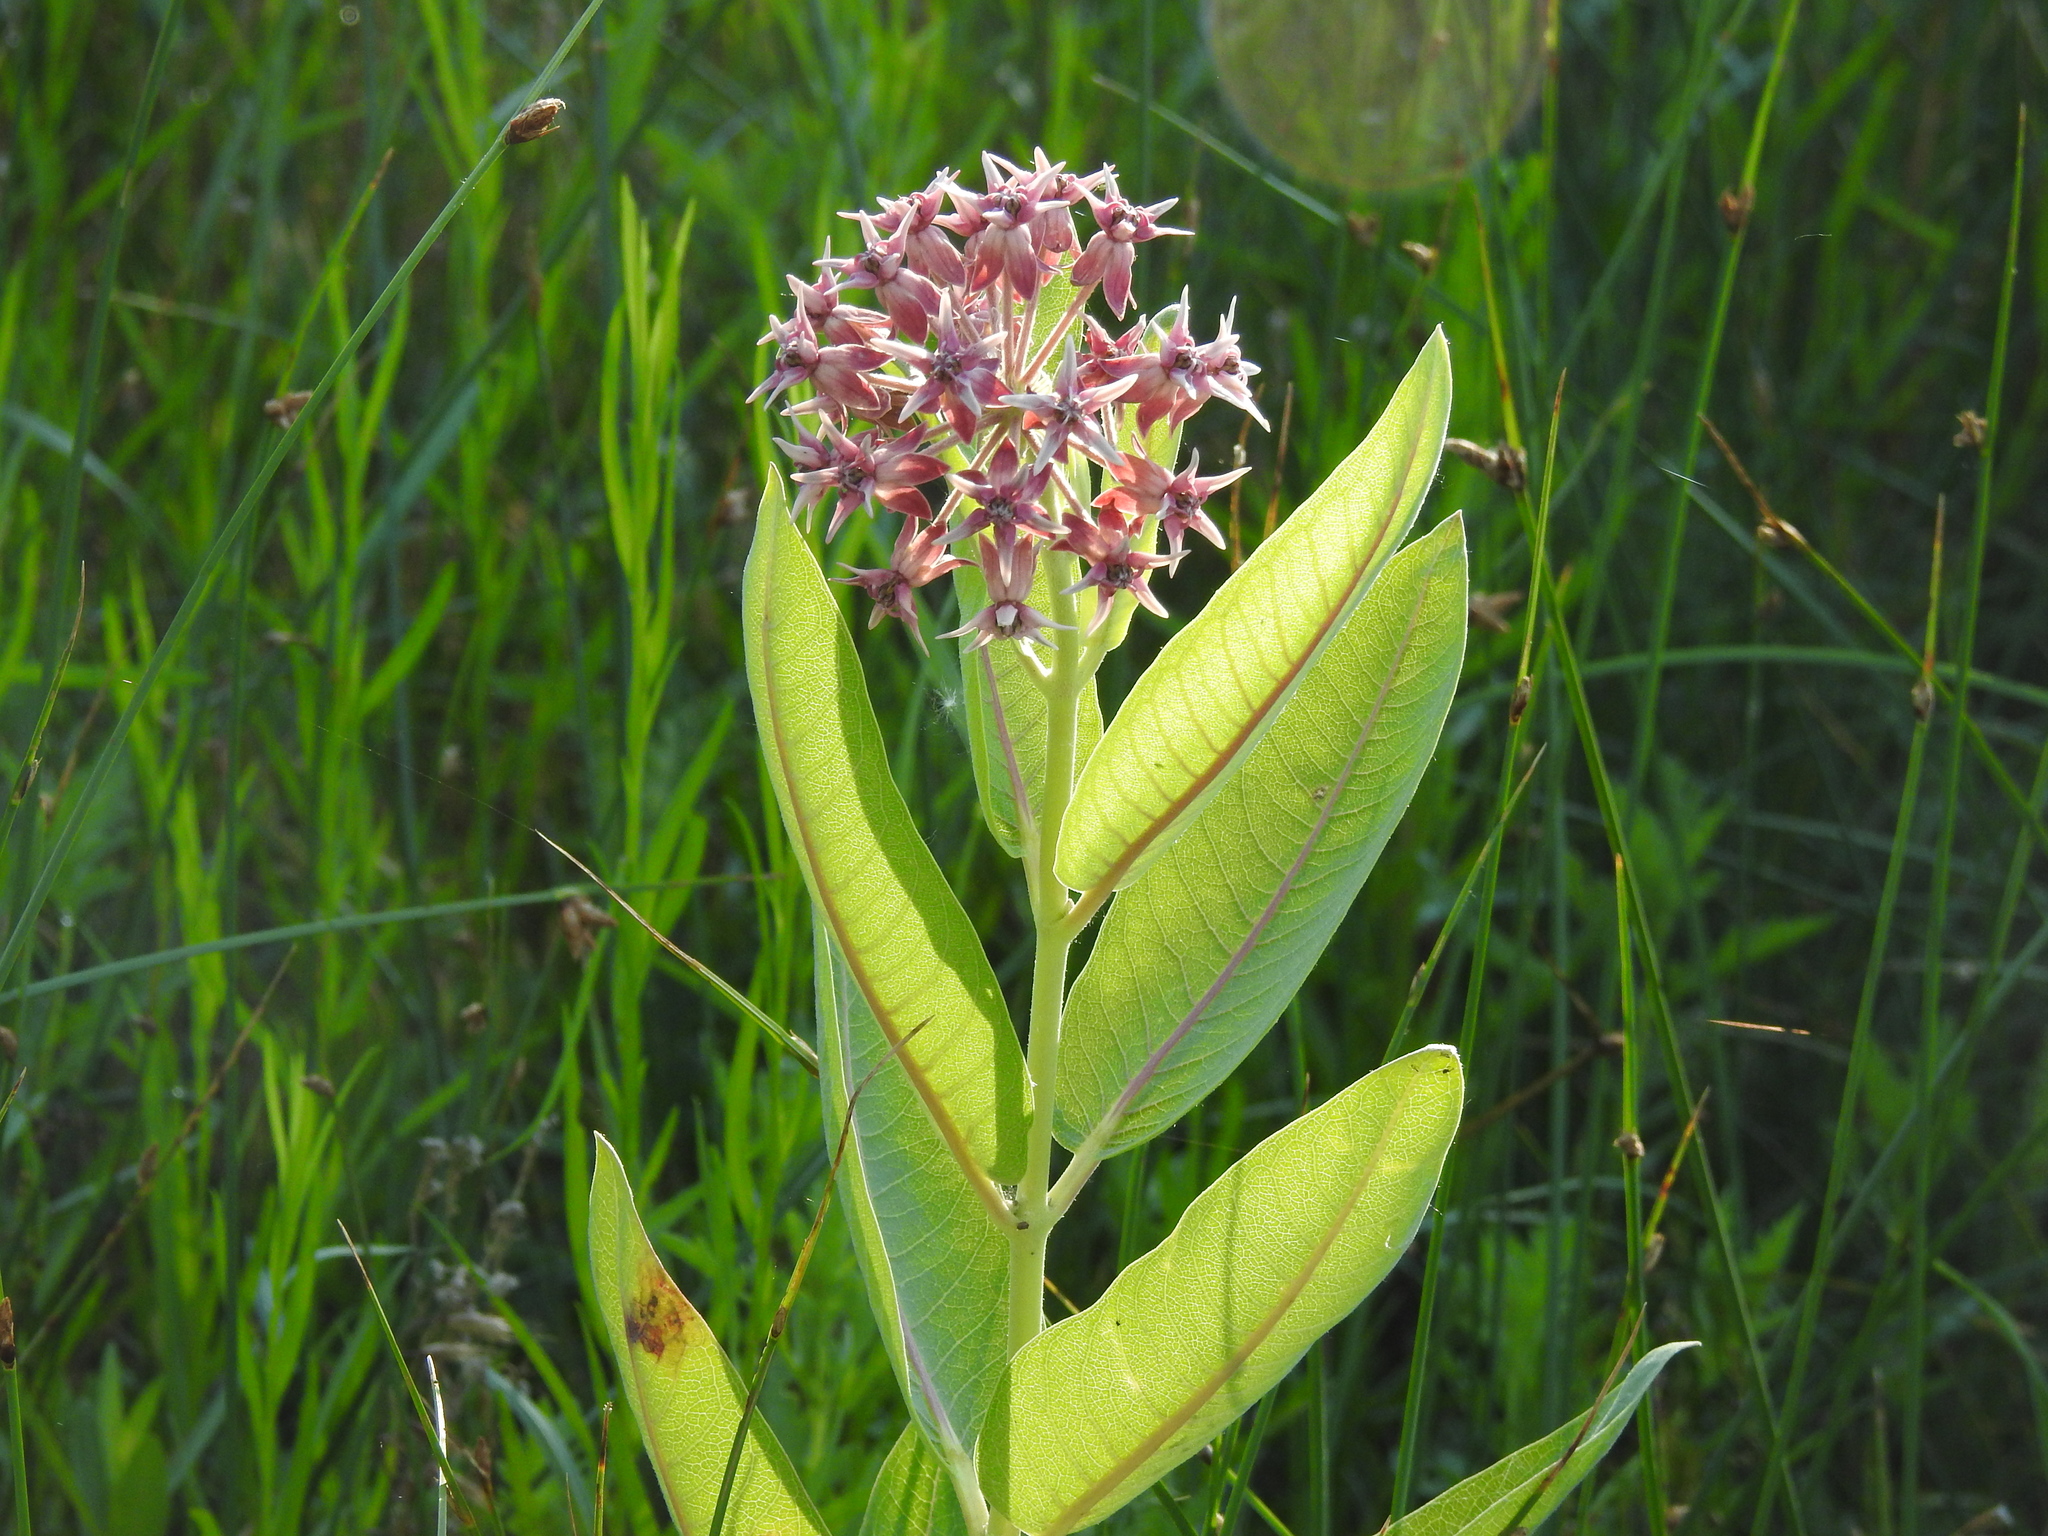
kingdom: Plantae
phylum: Tracheophyta
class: Magnoliopsida
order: Gentianales
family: Apocynaceae
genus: Asclepias
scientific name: Asclepias speciosa
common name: Showy milkweed
